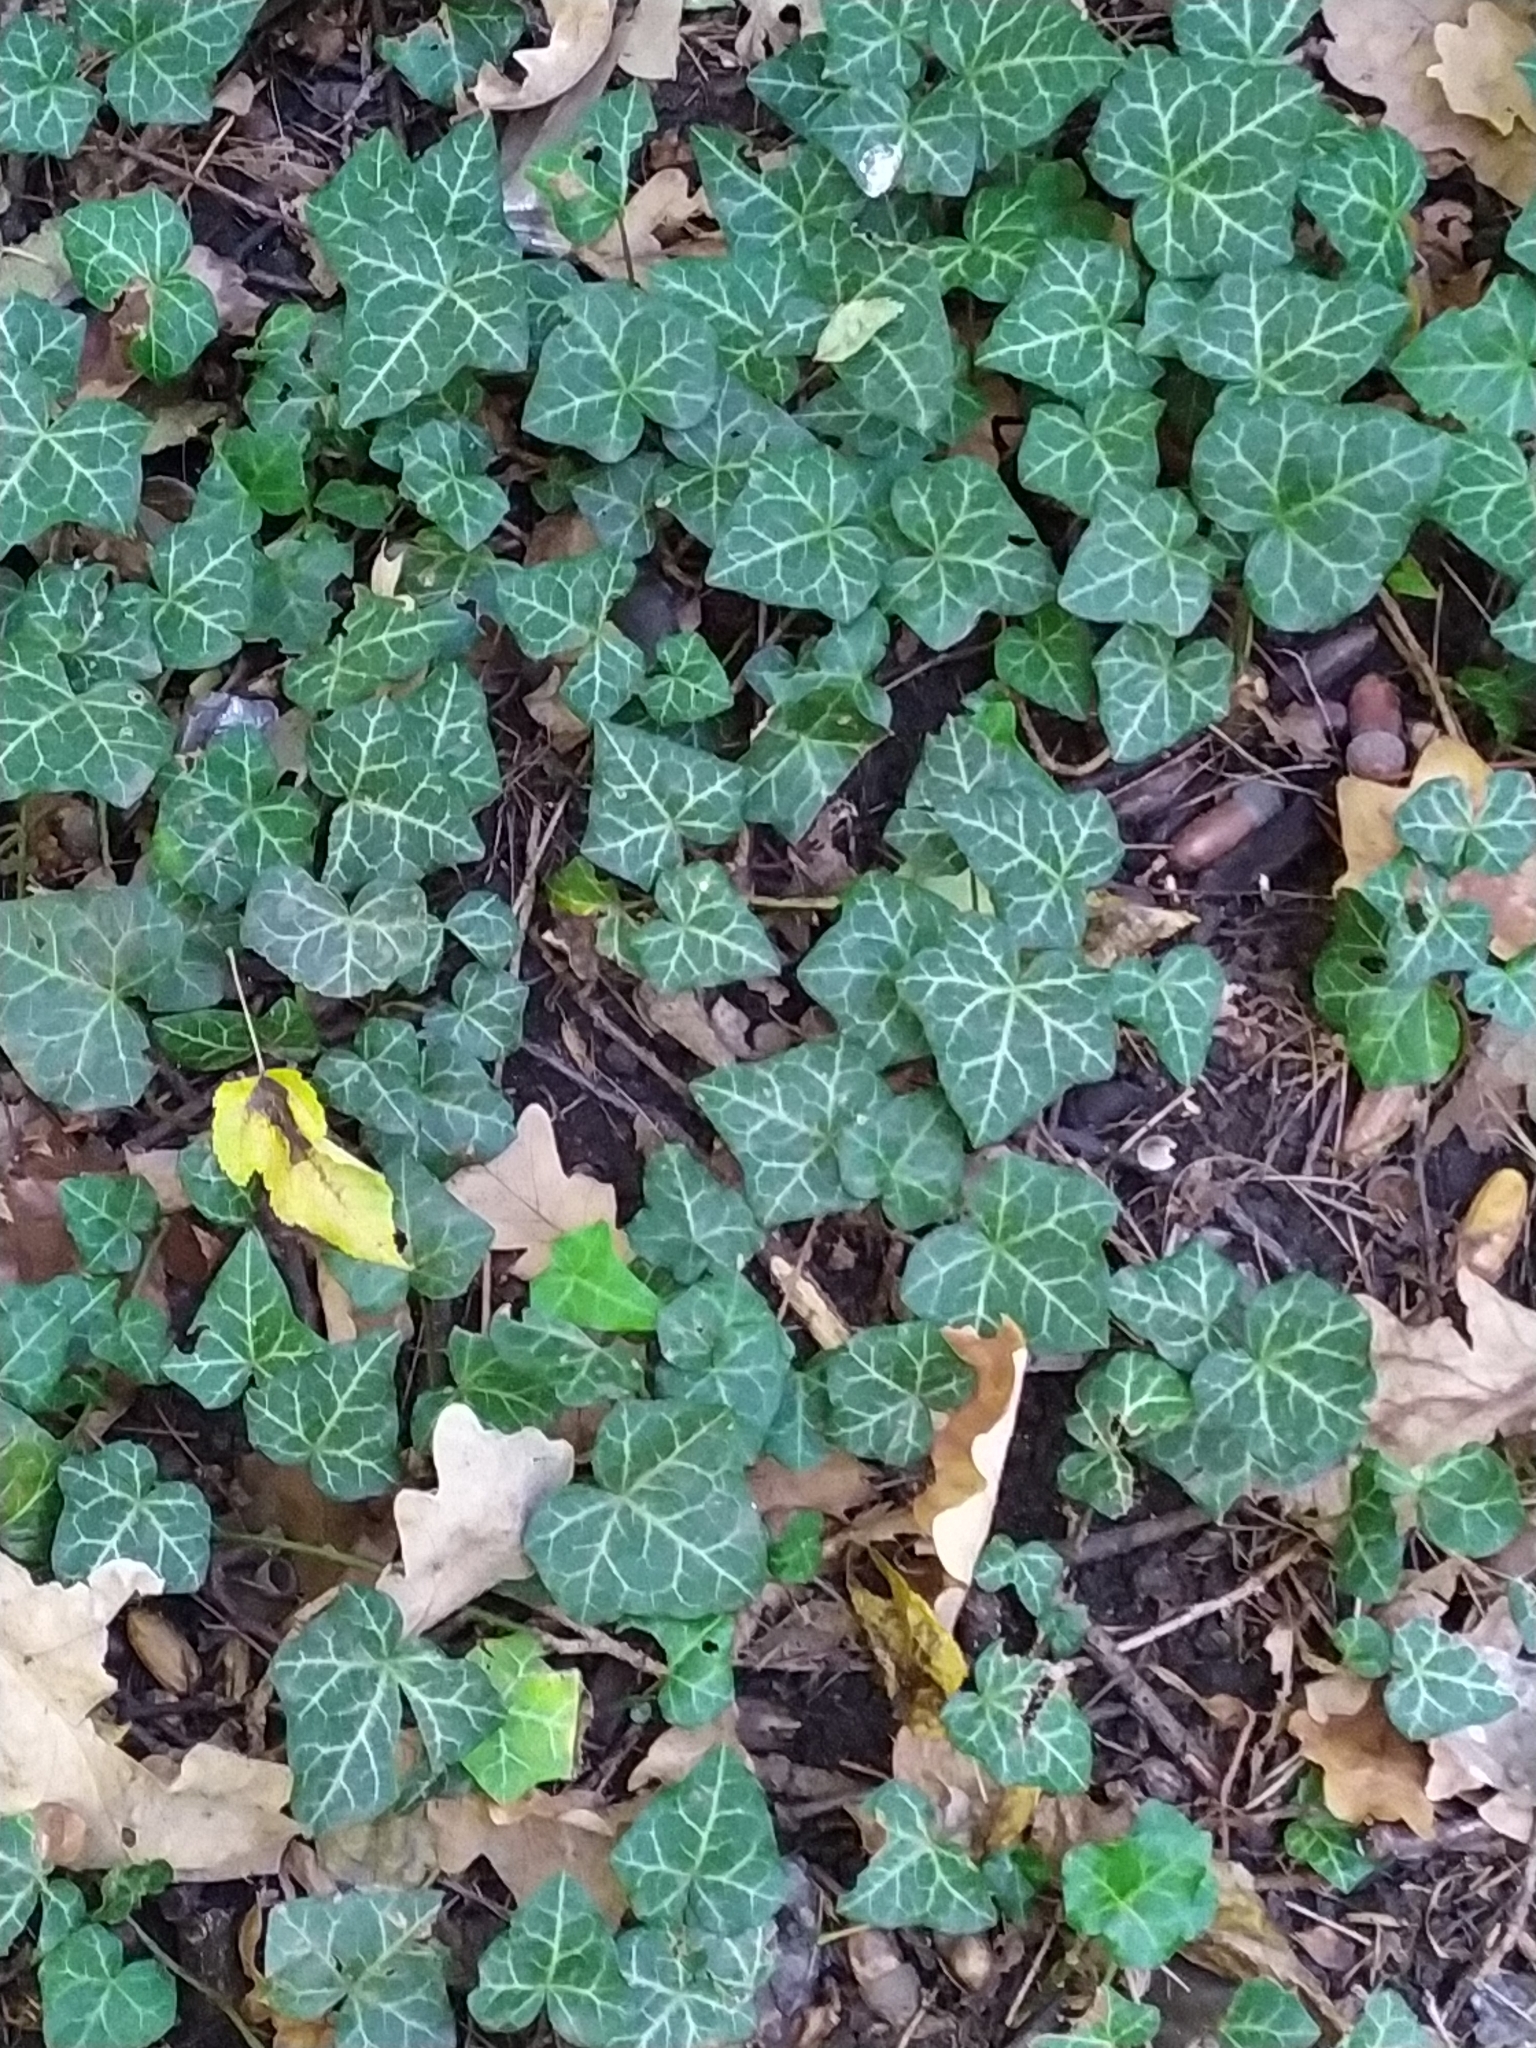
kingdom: Plantae
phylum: Tracheophyta
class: Magnoliopsida
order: Apiales
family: Araliaceae
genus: Hedera
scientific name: Hedera helix
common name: Ivy
